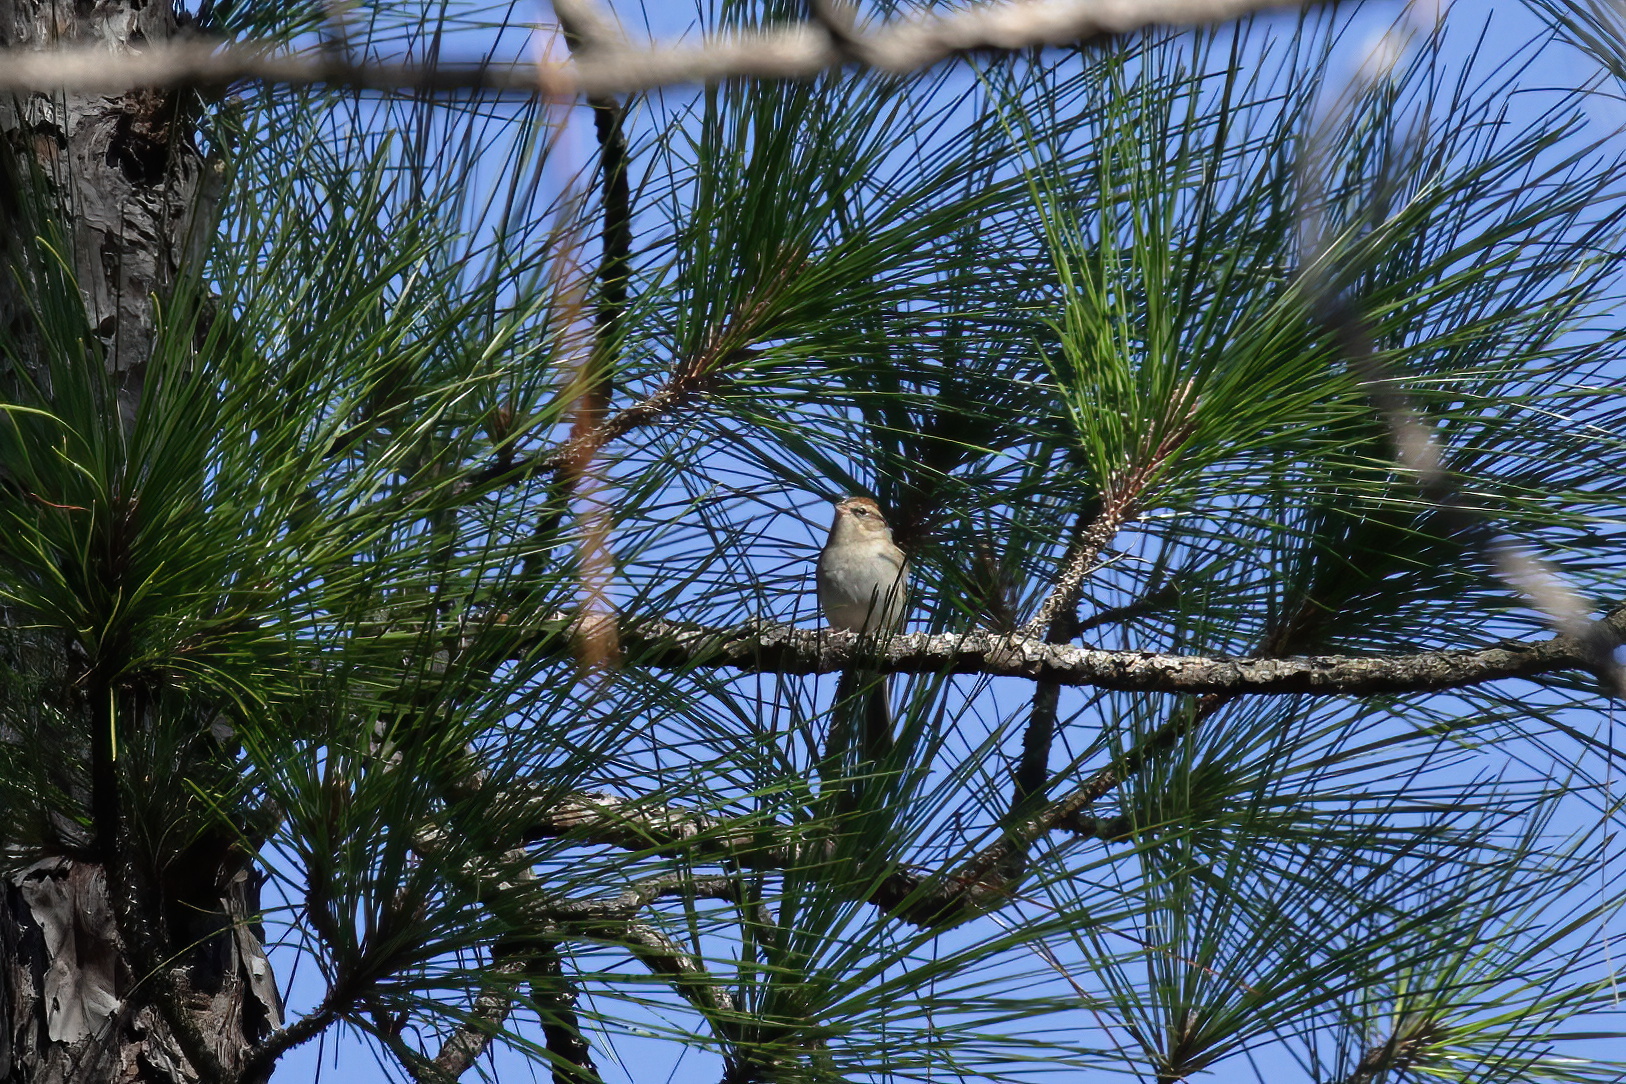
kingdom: Animalia
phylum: Chordata
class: Aves
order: Passeriformes
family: Passerellidae
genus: Spizella
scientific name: Spizella passerina
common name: Chipping sparrow
